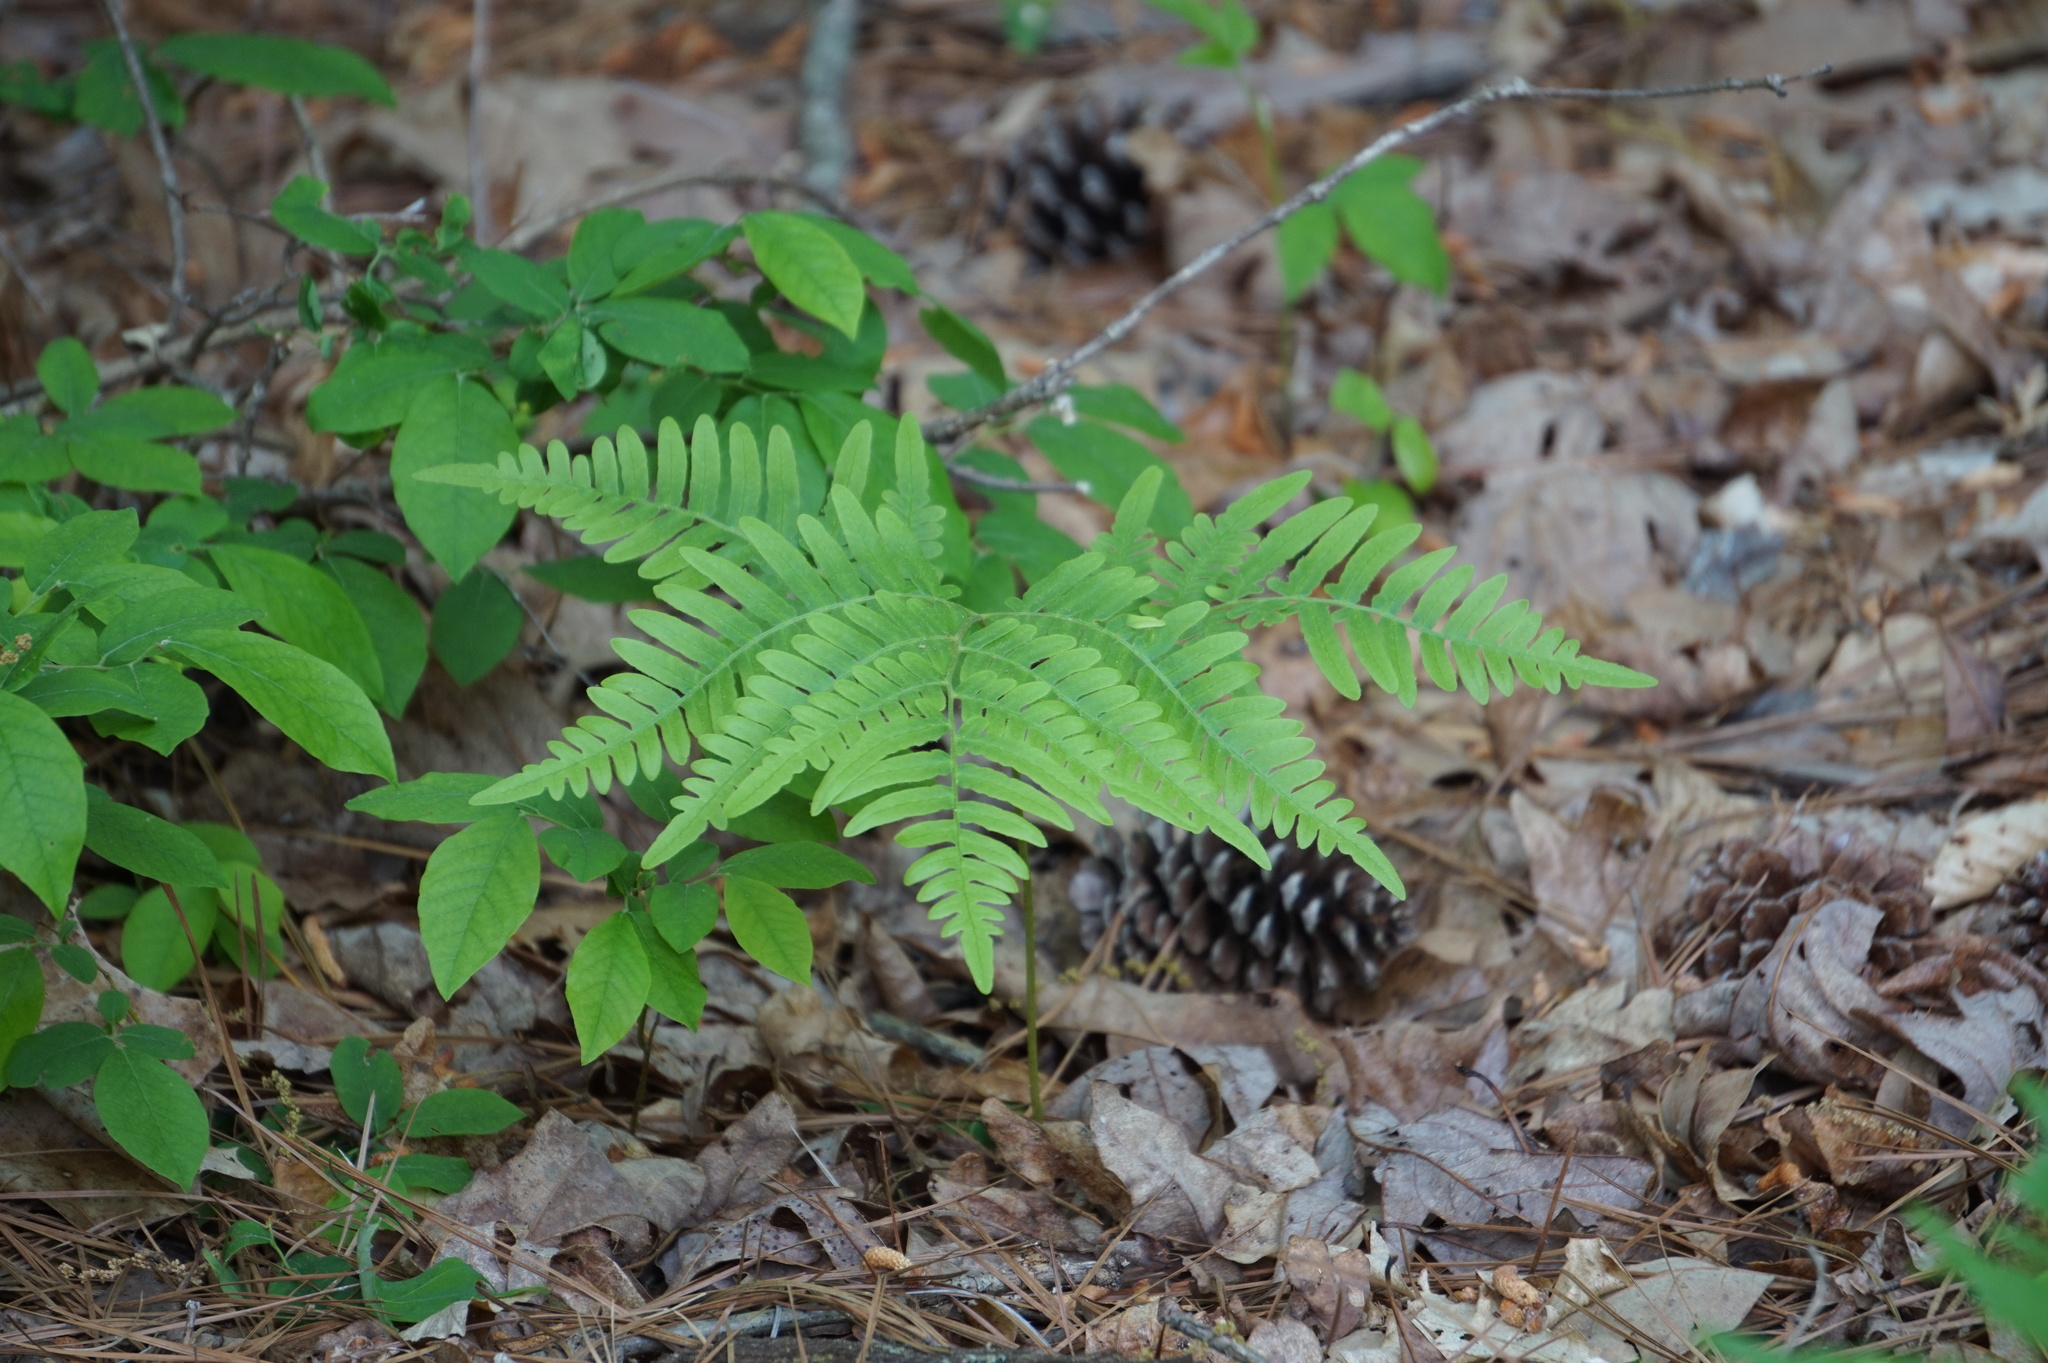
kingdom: Plantae
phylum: Tracheophyta
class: Polypodiopsida
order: Polypodiales
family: Dennstaedtiaceae
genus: Pteridium
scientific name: Pteridium aquilinum
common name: Bracken
